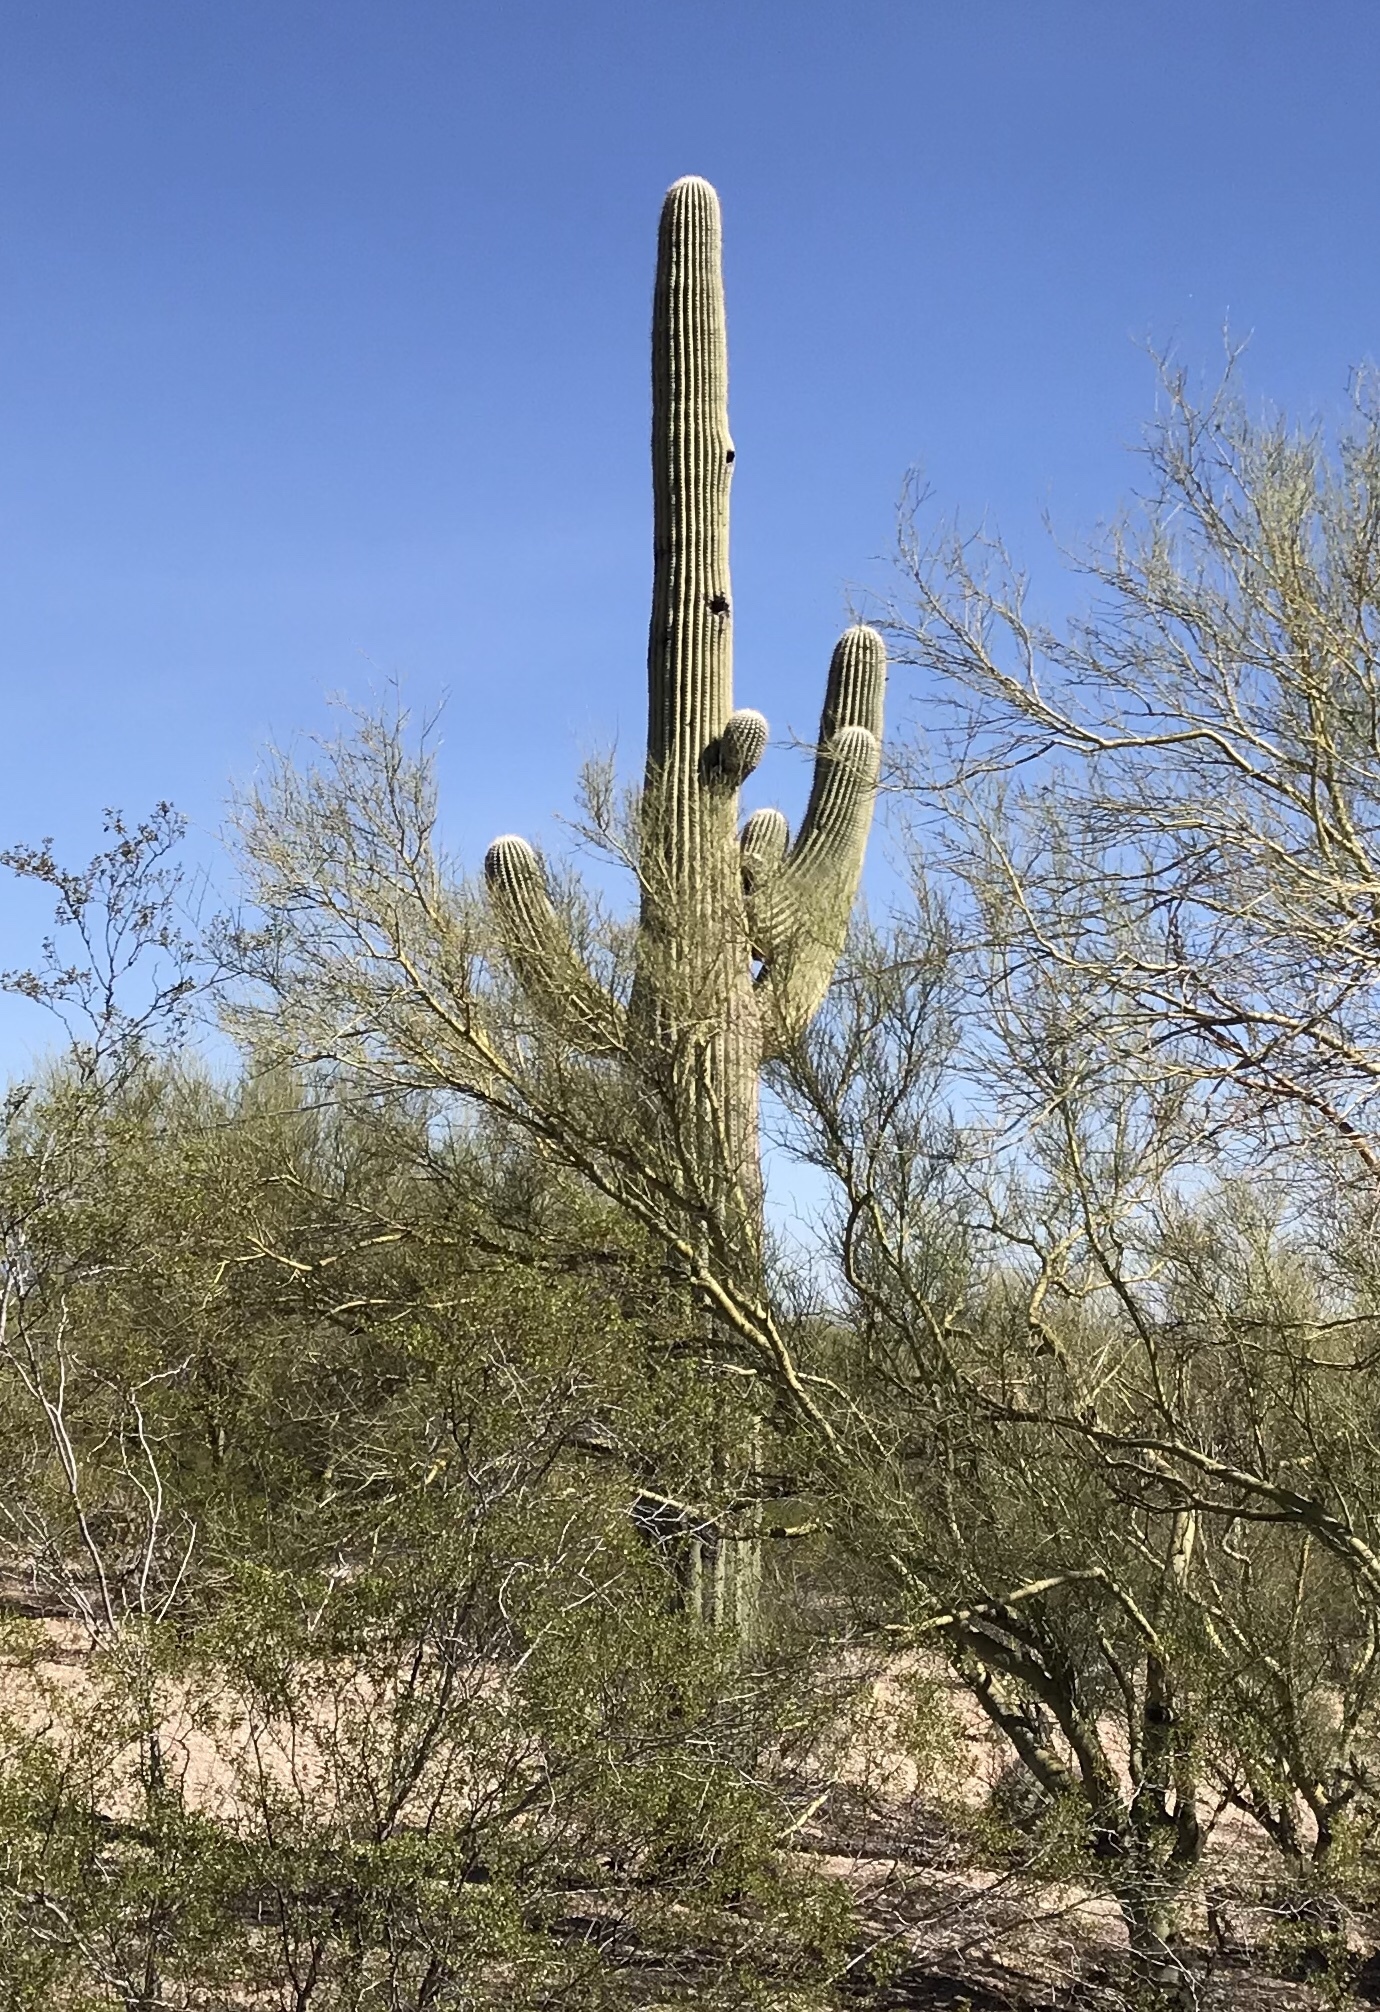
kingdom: Plantae
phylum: Tracheophyta
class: Magnoliopsida
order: Caryophyllales
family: Cactaceae
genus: Carnegiea
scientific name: Carnegiea gigantea
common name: Saguaro
